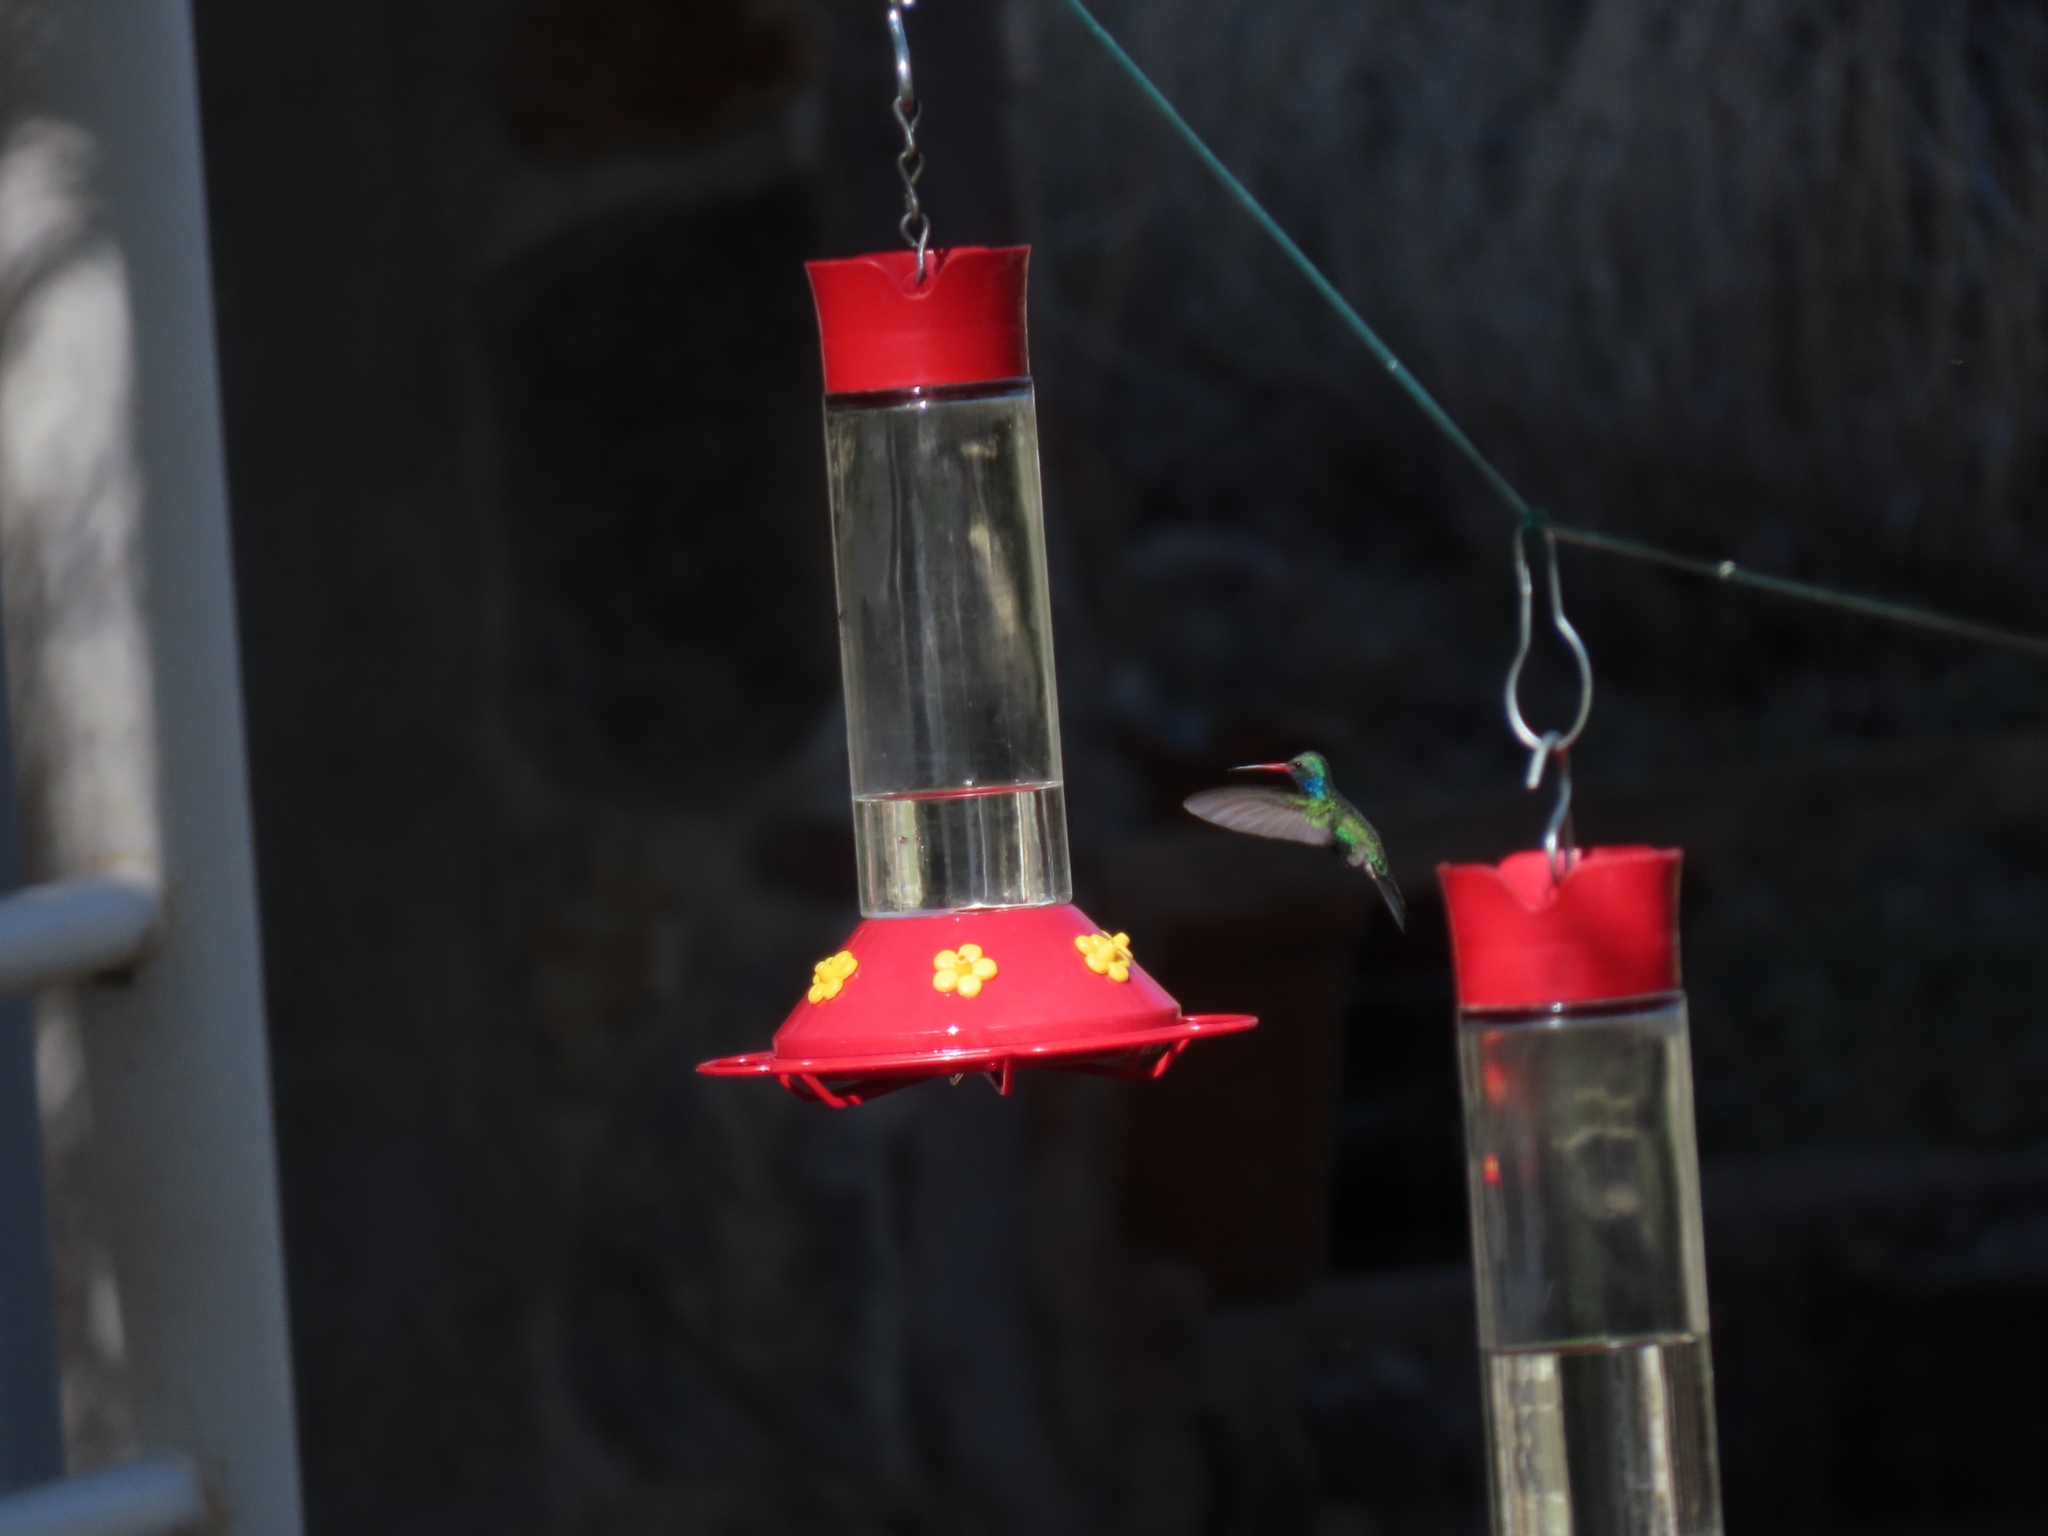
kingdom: Animalia
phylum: Chordata
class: Aves
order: Apodiformes
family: Trochilidae
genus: Cynanthus
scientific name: Cynanthus latirostris
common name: Broad-billed hummingbird
